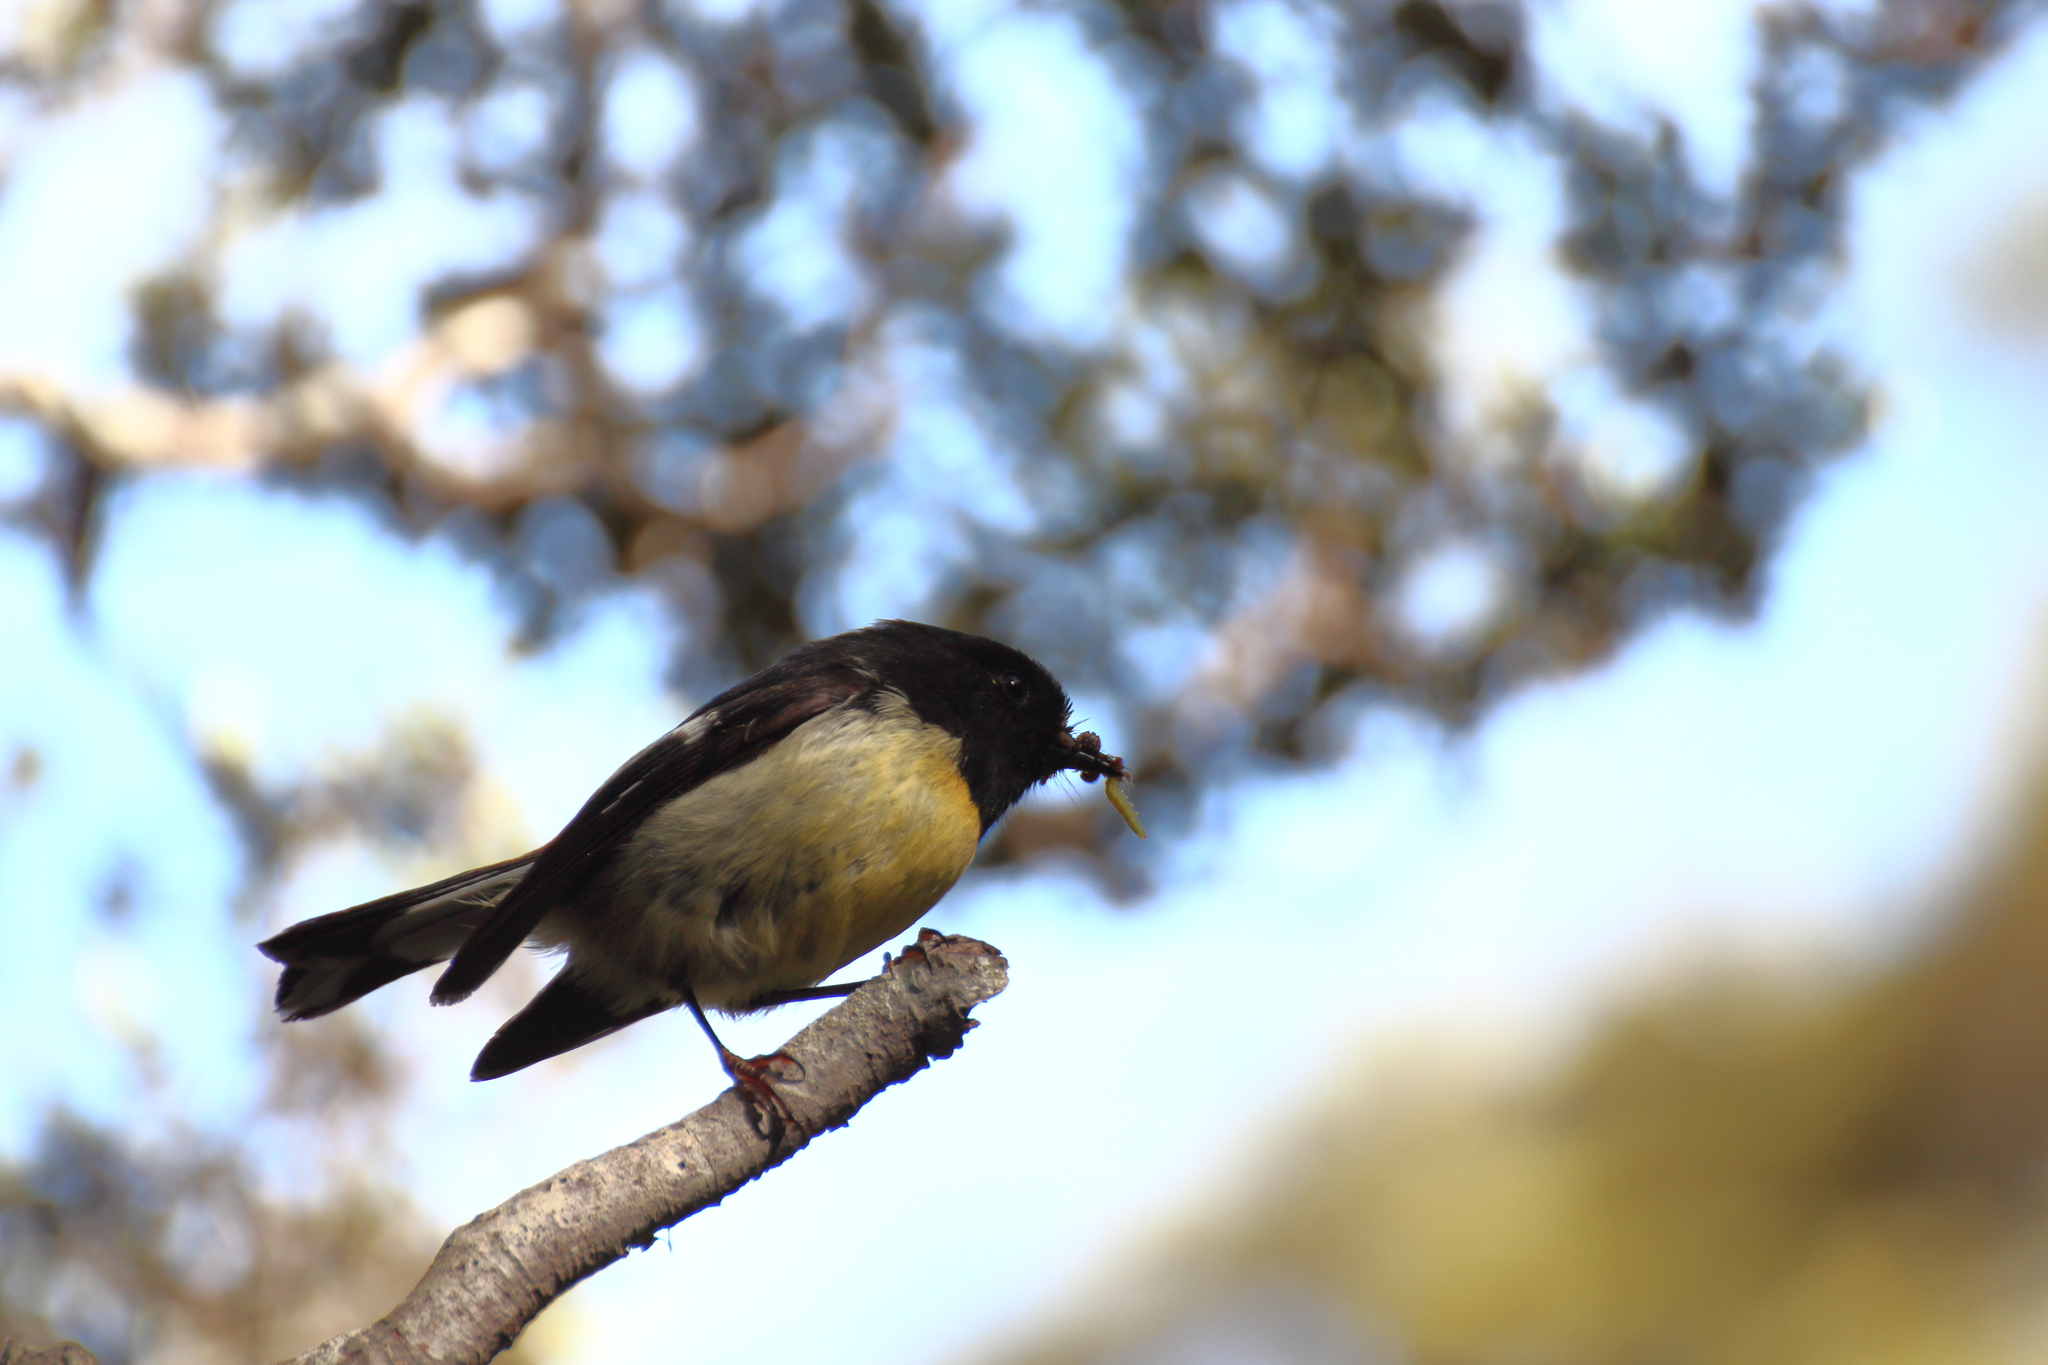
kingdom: Animalia
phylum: Chordata
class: Aves
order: Passeriformes
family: Petroicidae
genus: Petroica
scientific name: Petroica macrocephala
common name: Tomtit
